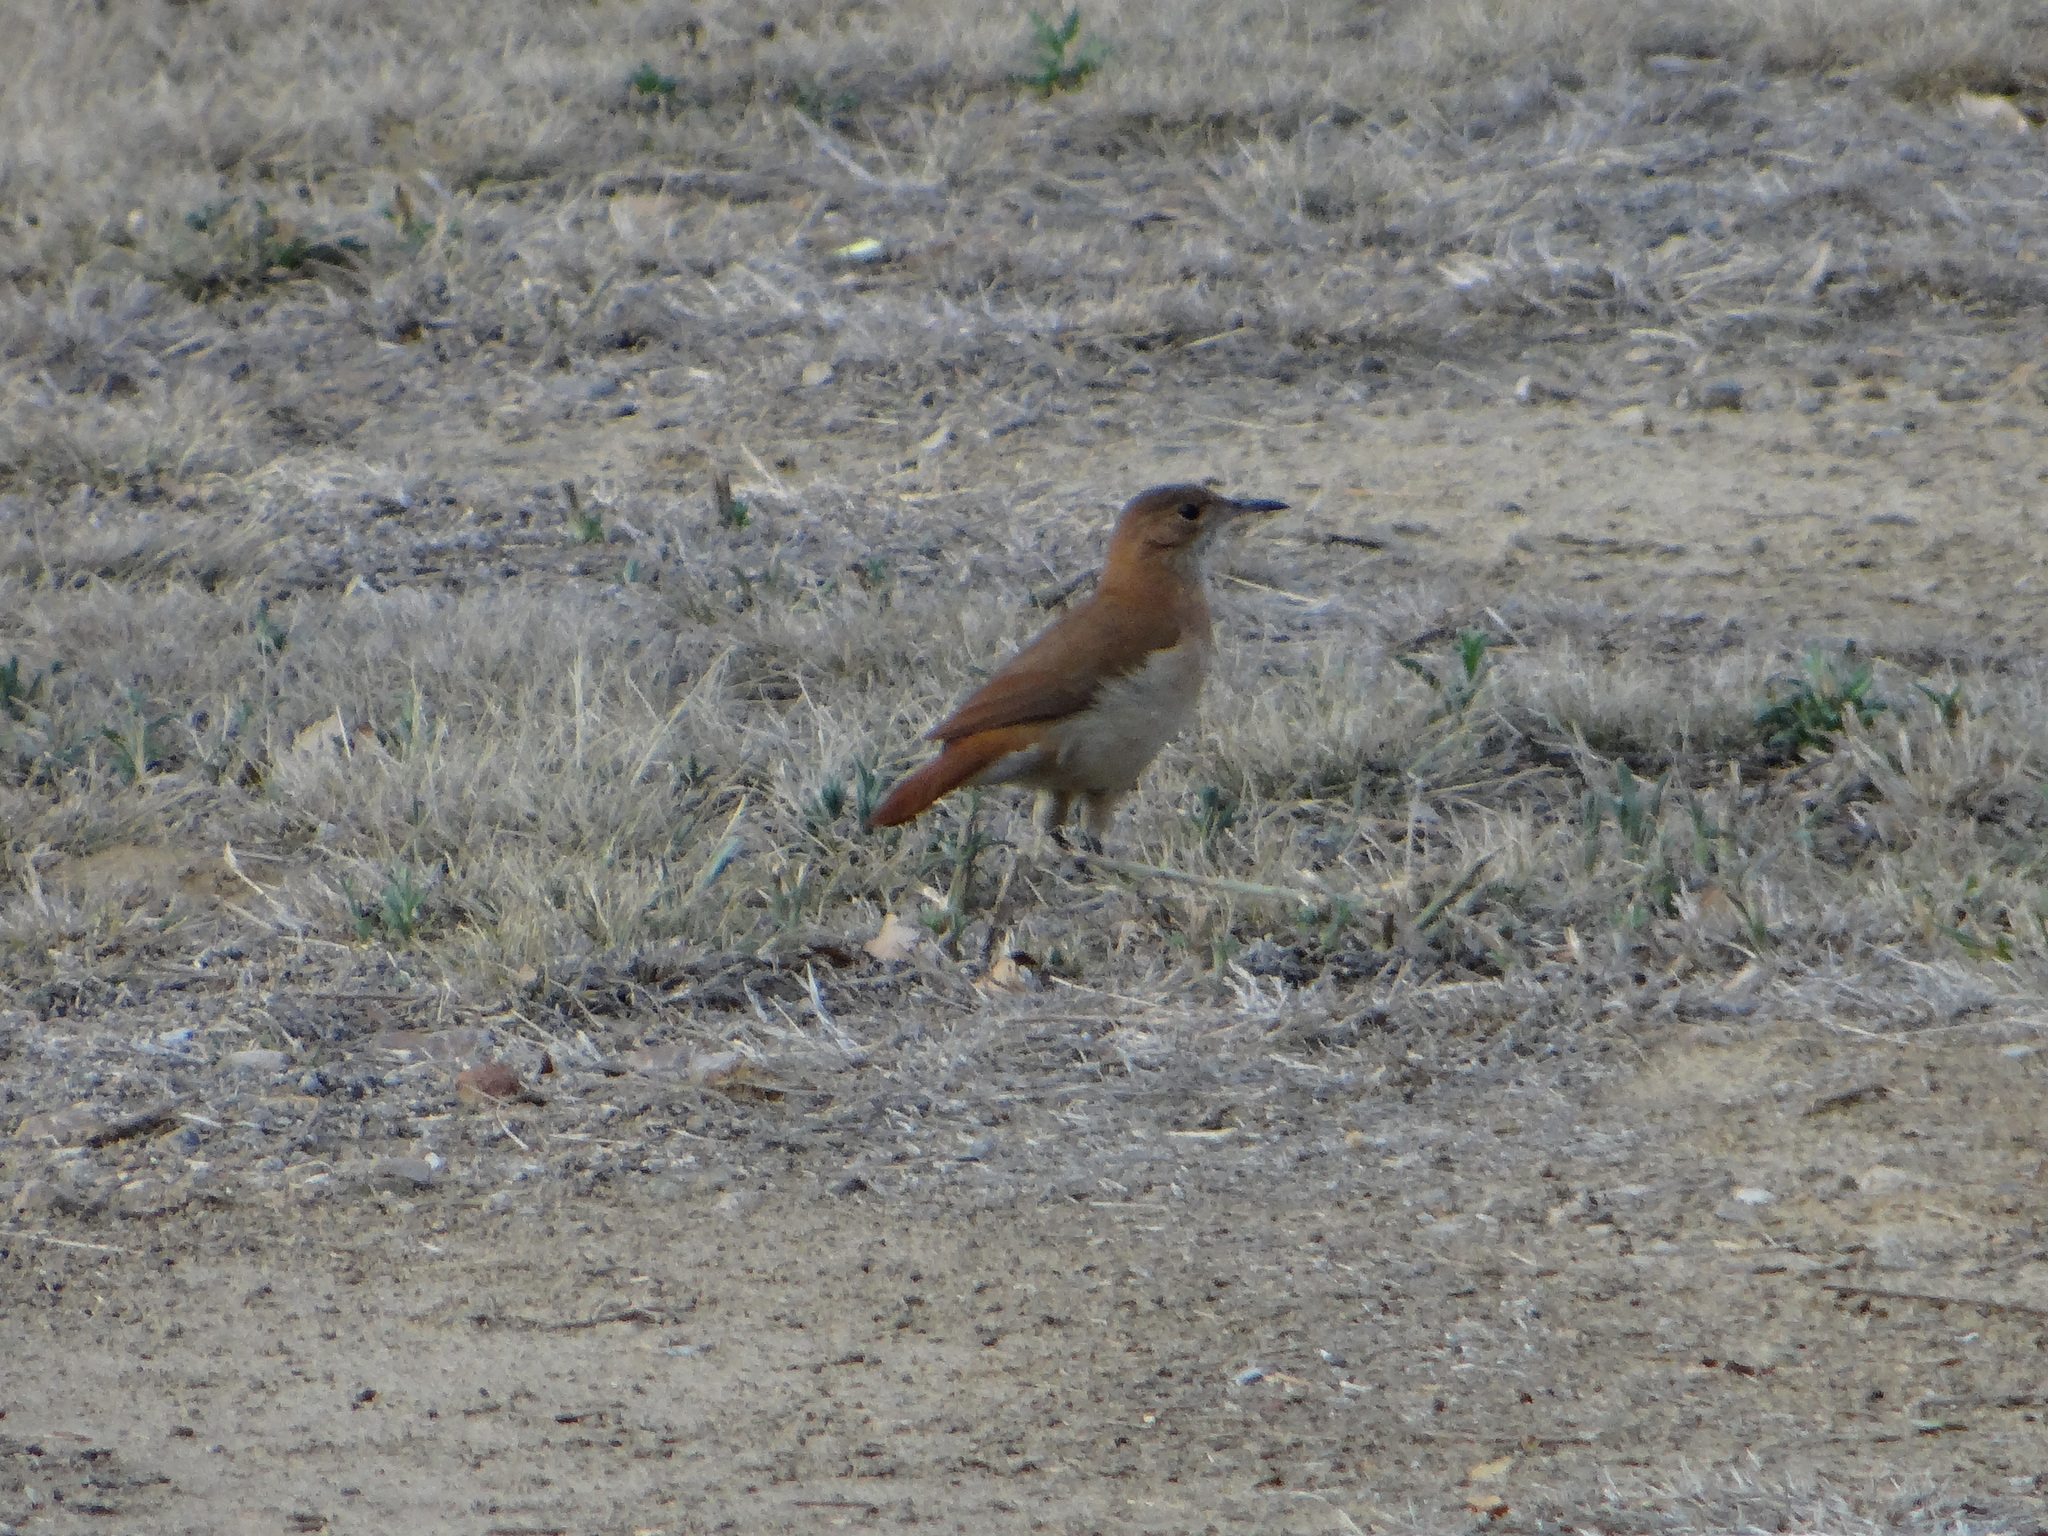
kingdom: Animalia
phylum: Chordata
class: Aves
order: Passeriformes
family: Furnariidae
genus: Furnarius
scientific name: Furnarius rufus
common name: Rufous hornero
